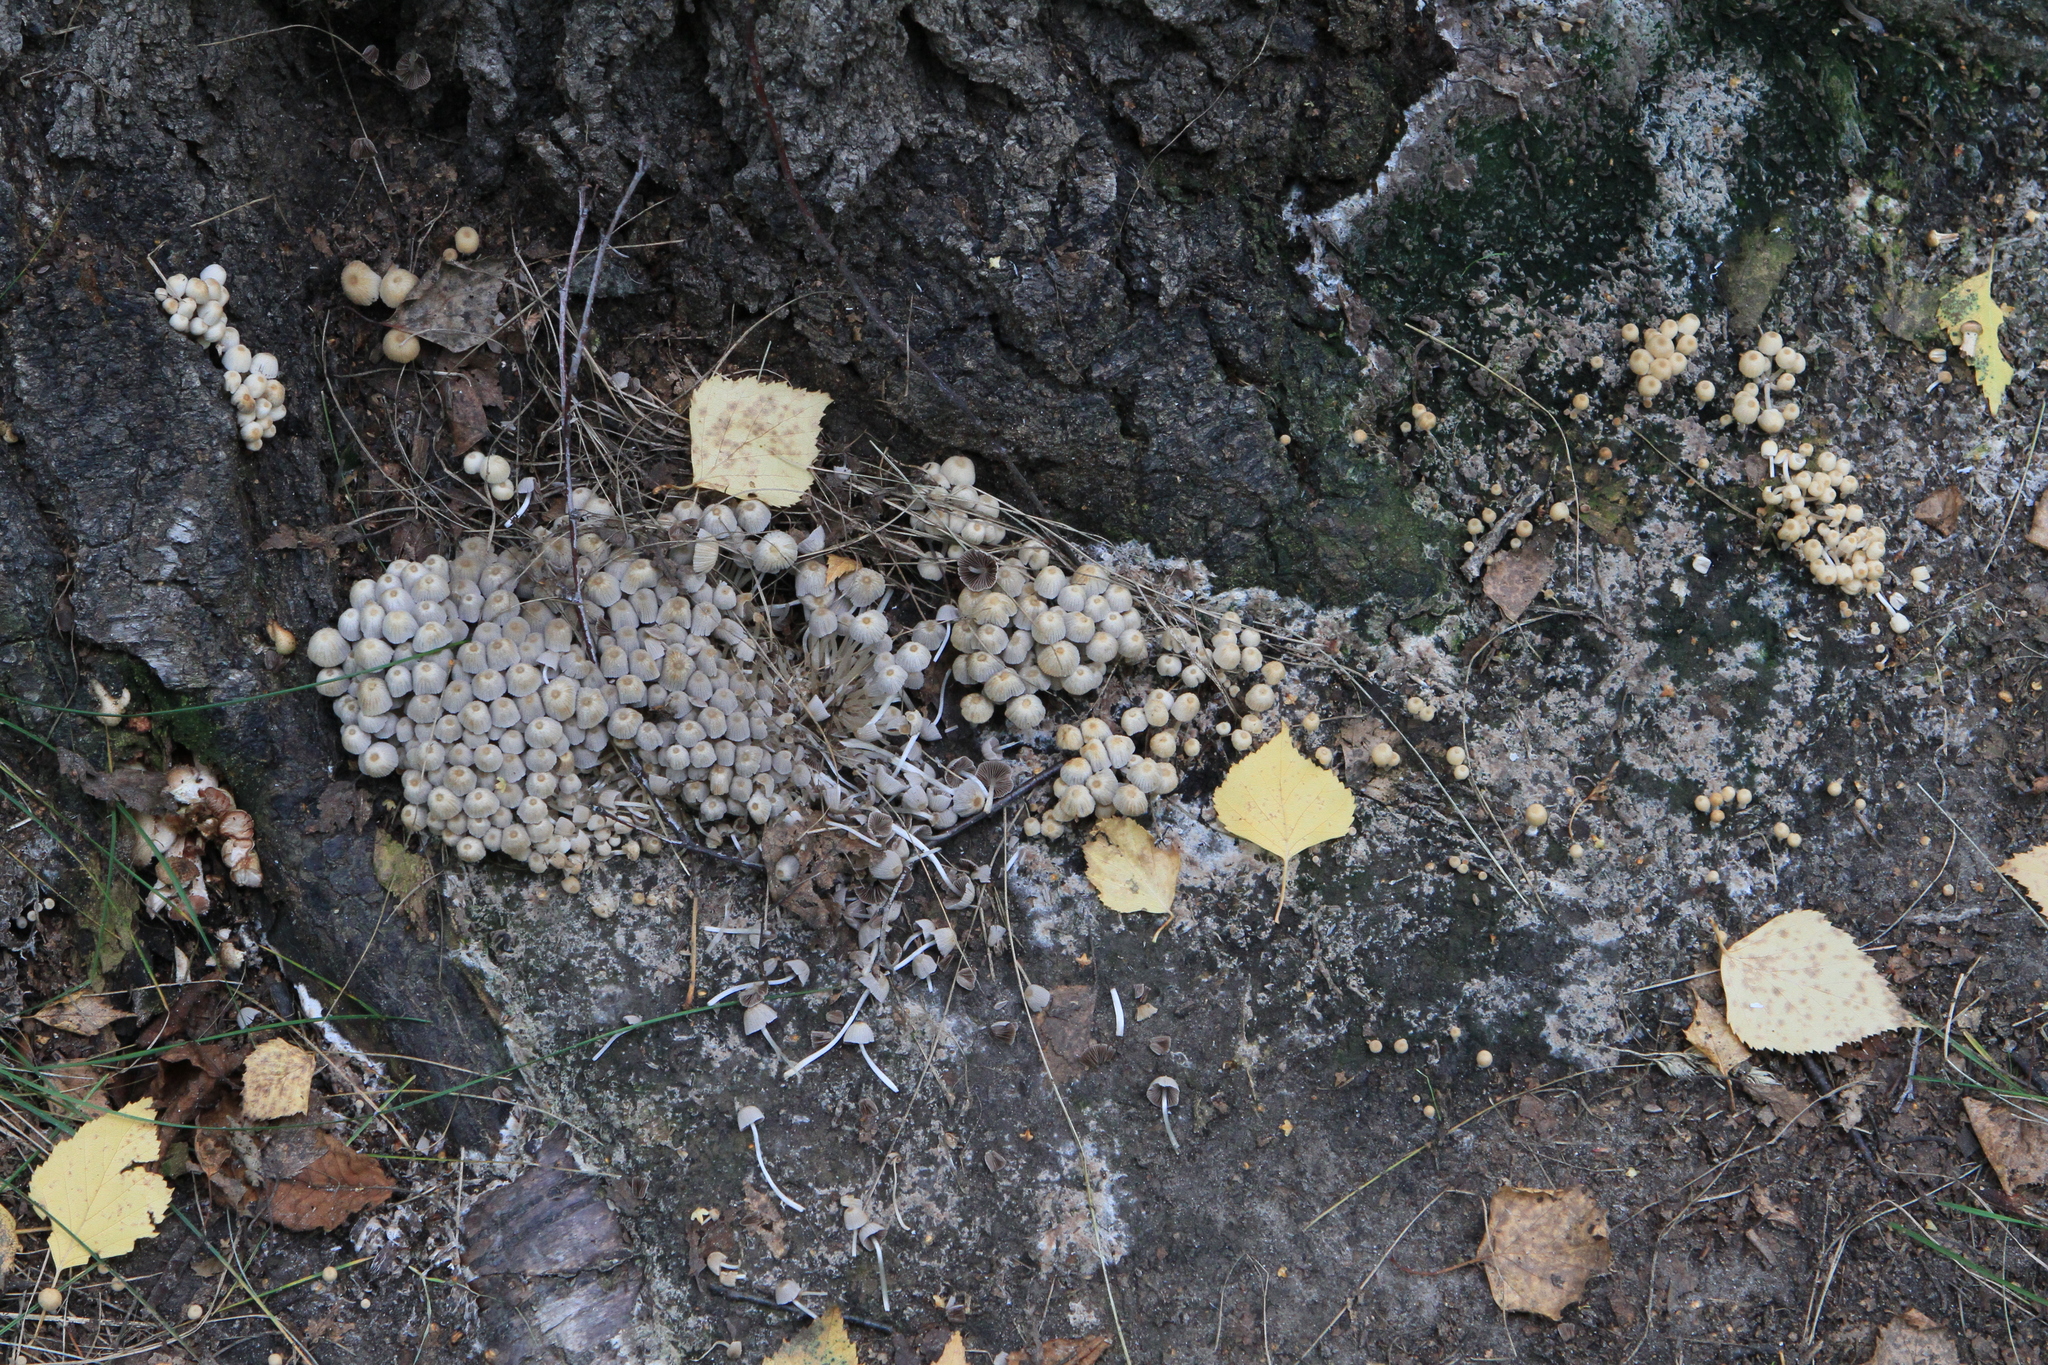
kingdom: Fungi
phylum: Basidiomycota
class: Agaricomycetes
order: Agaricales
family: Psathyrellaceae
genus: Coprinellus
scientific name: Coprinellus disseminatus
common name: Fairies' bonnets
